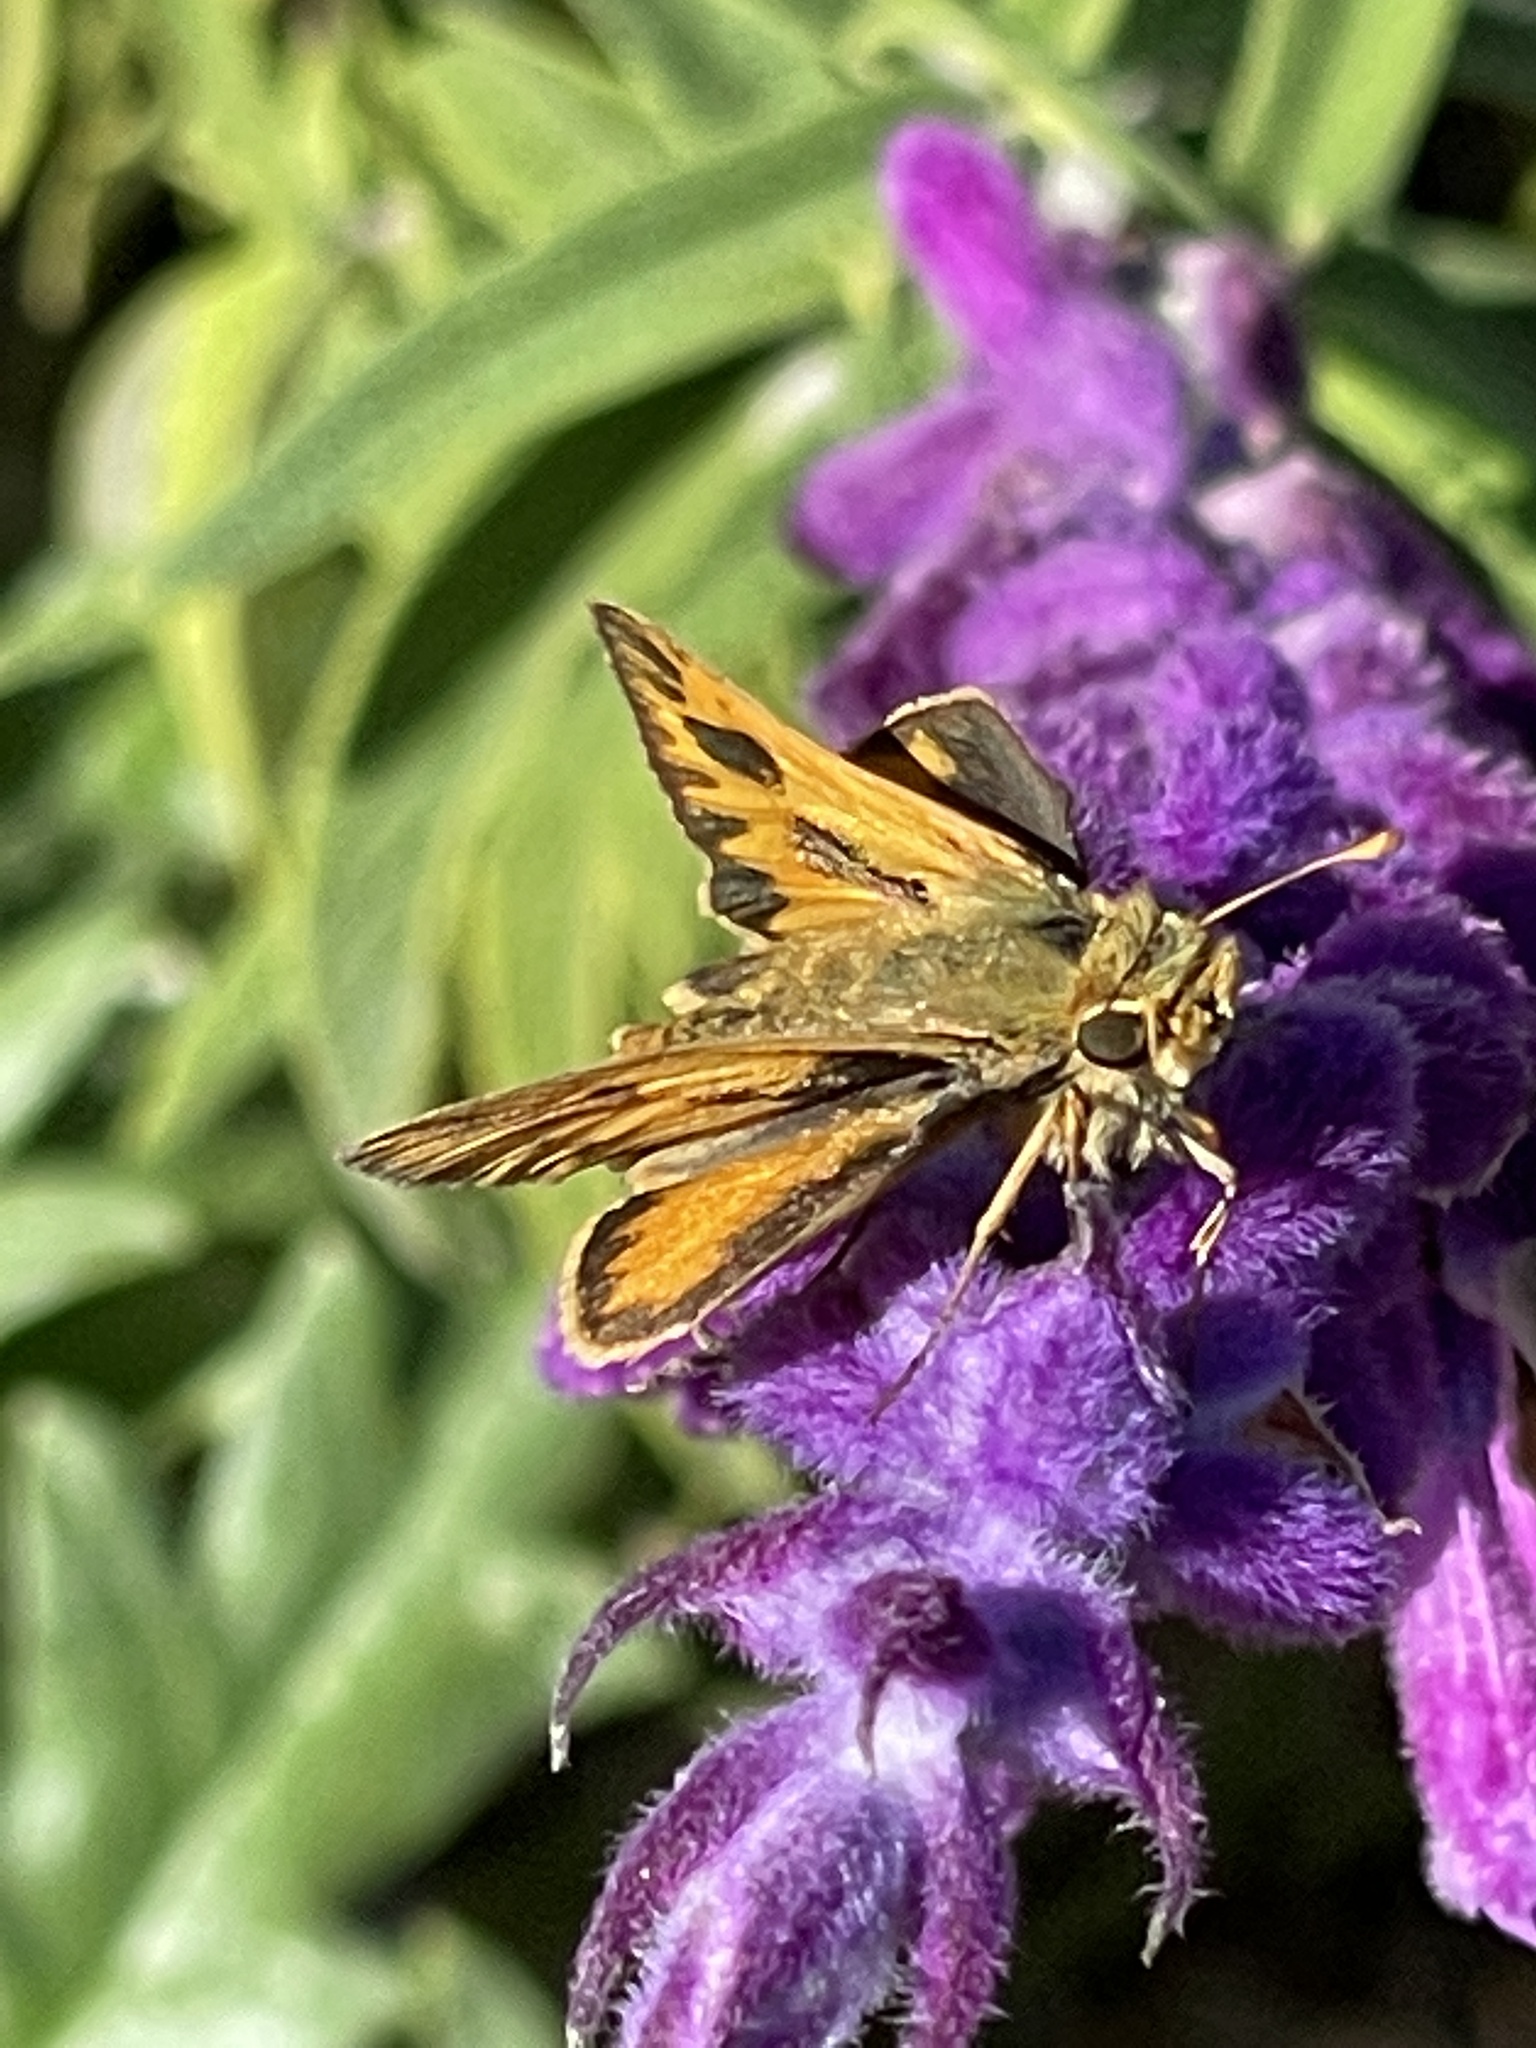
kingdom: Animalia
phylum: Arthropoda
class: Insecta
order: Lepidoptera
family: Hesperiidae
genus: Hylephila
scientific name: Hylephila phyleus
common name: Fiery skipper
